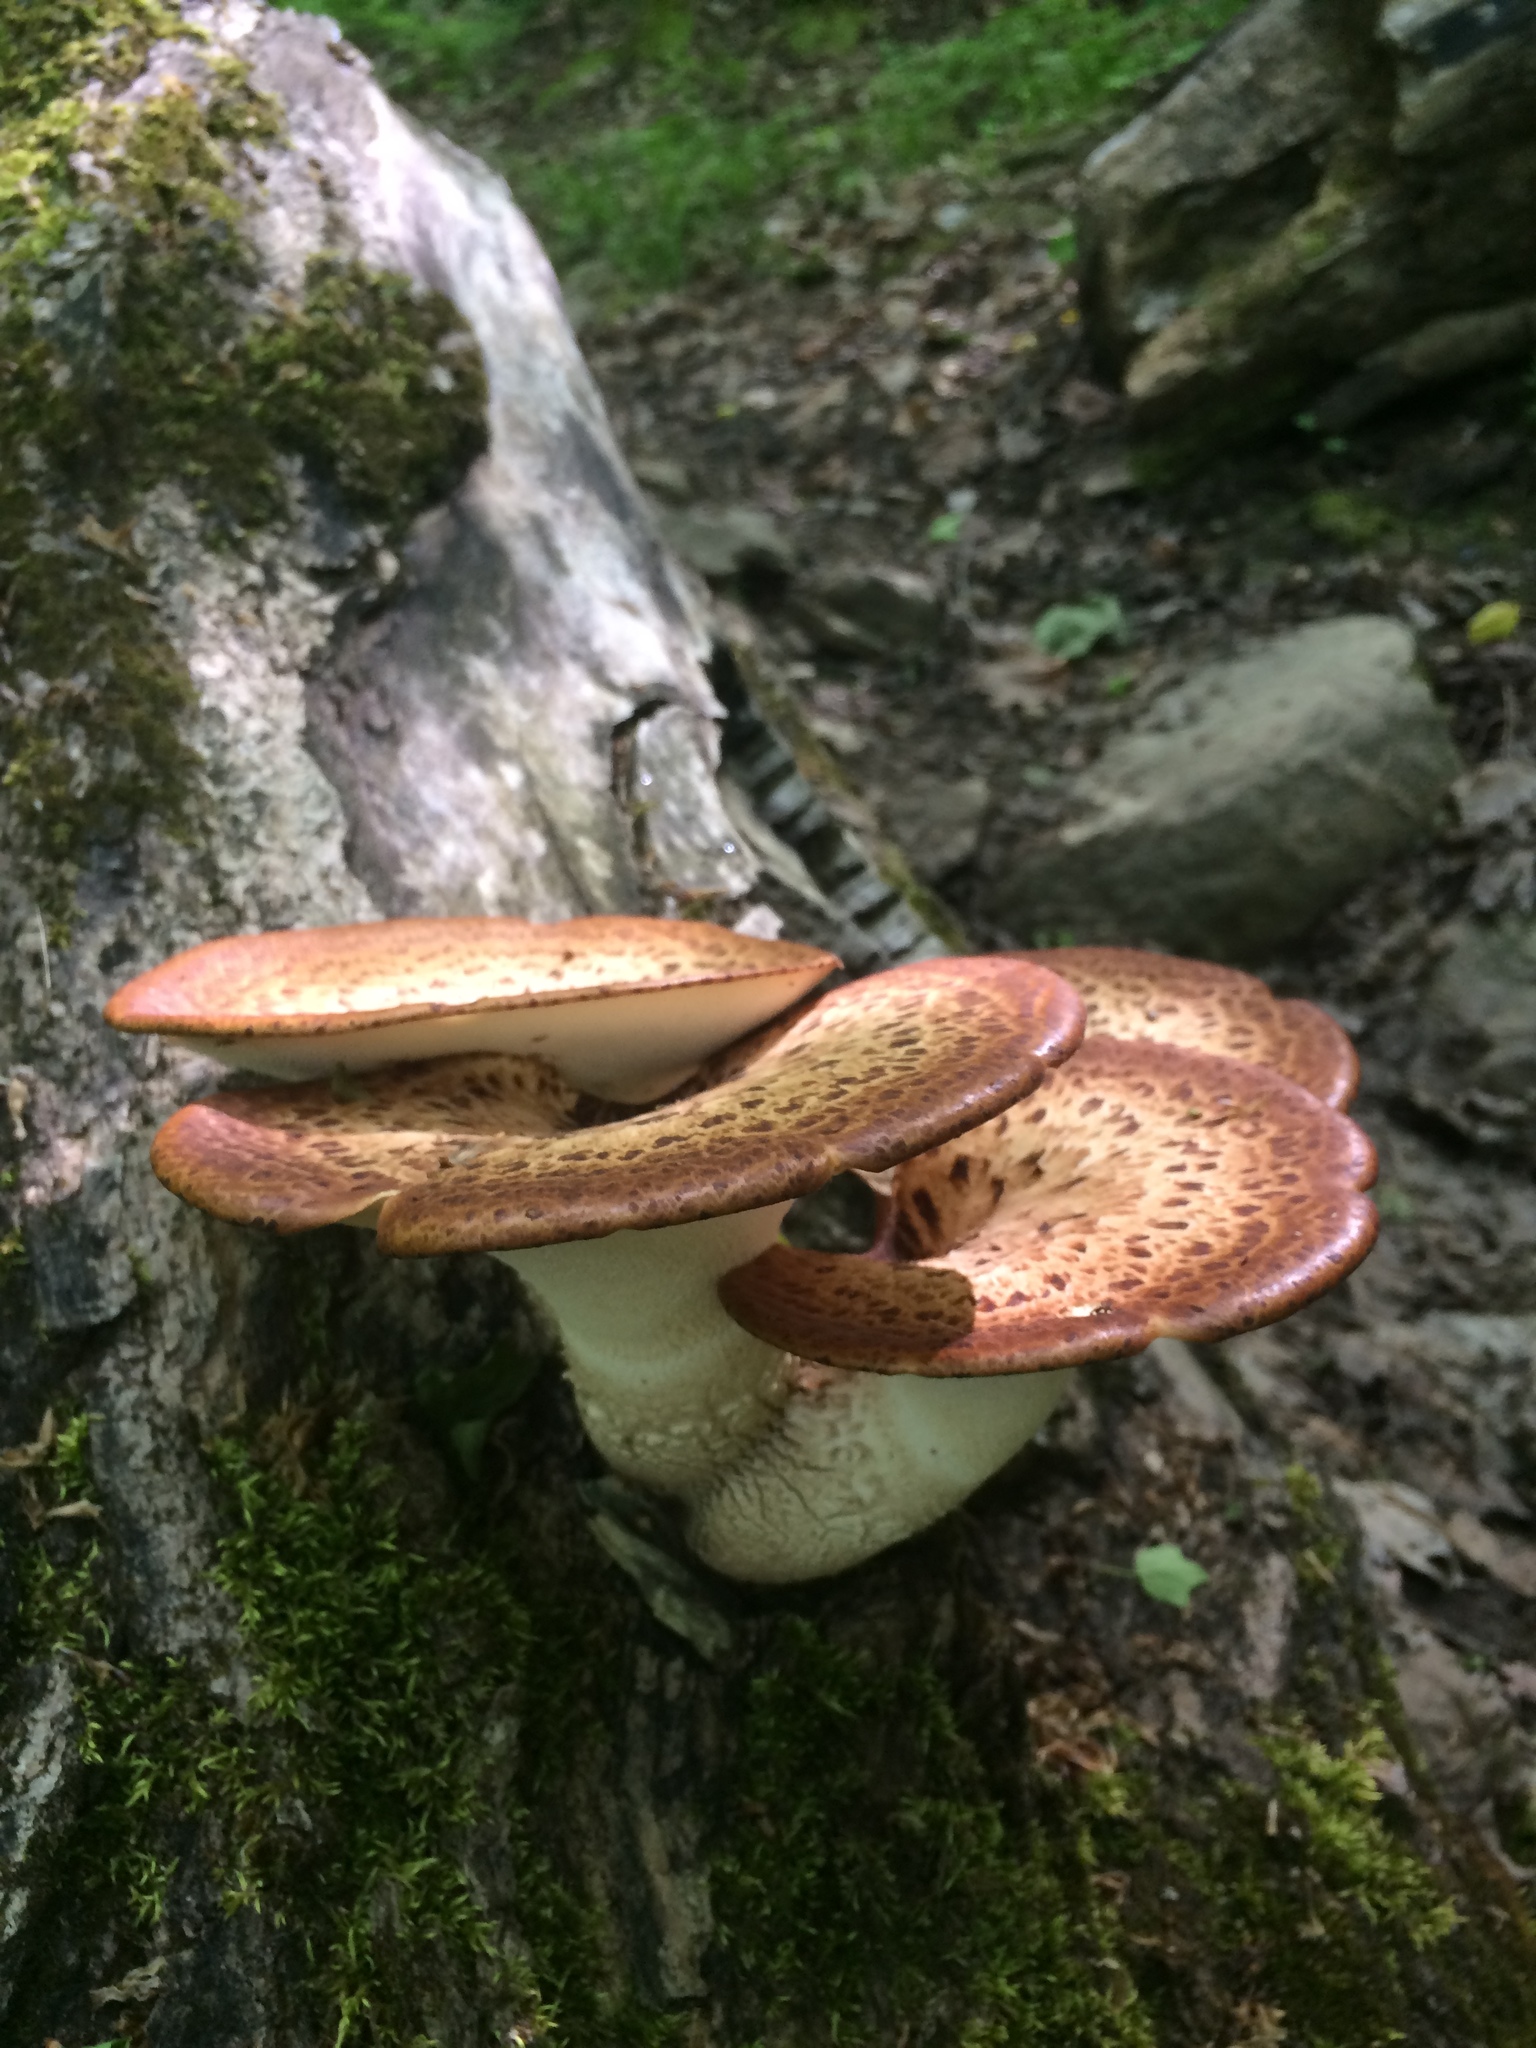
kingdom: Fungi
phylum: Basidiomycota
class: Agaricomycetes
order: Polyporales
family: Polyporaceae
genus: Cerioporus
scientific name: Cerioporus squamosus
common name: Dryad's saddle
